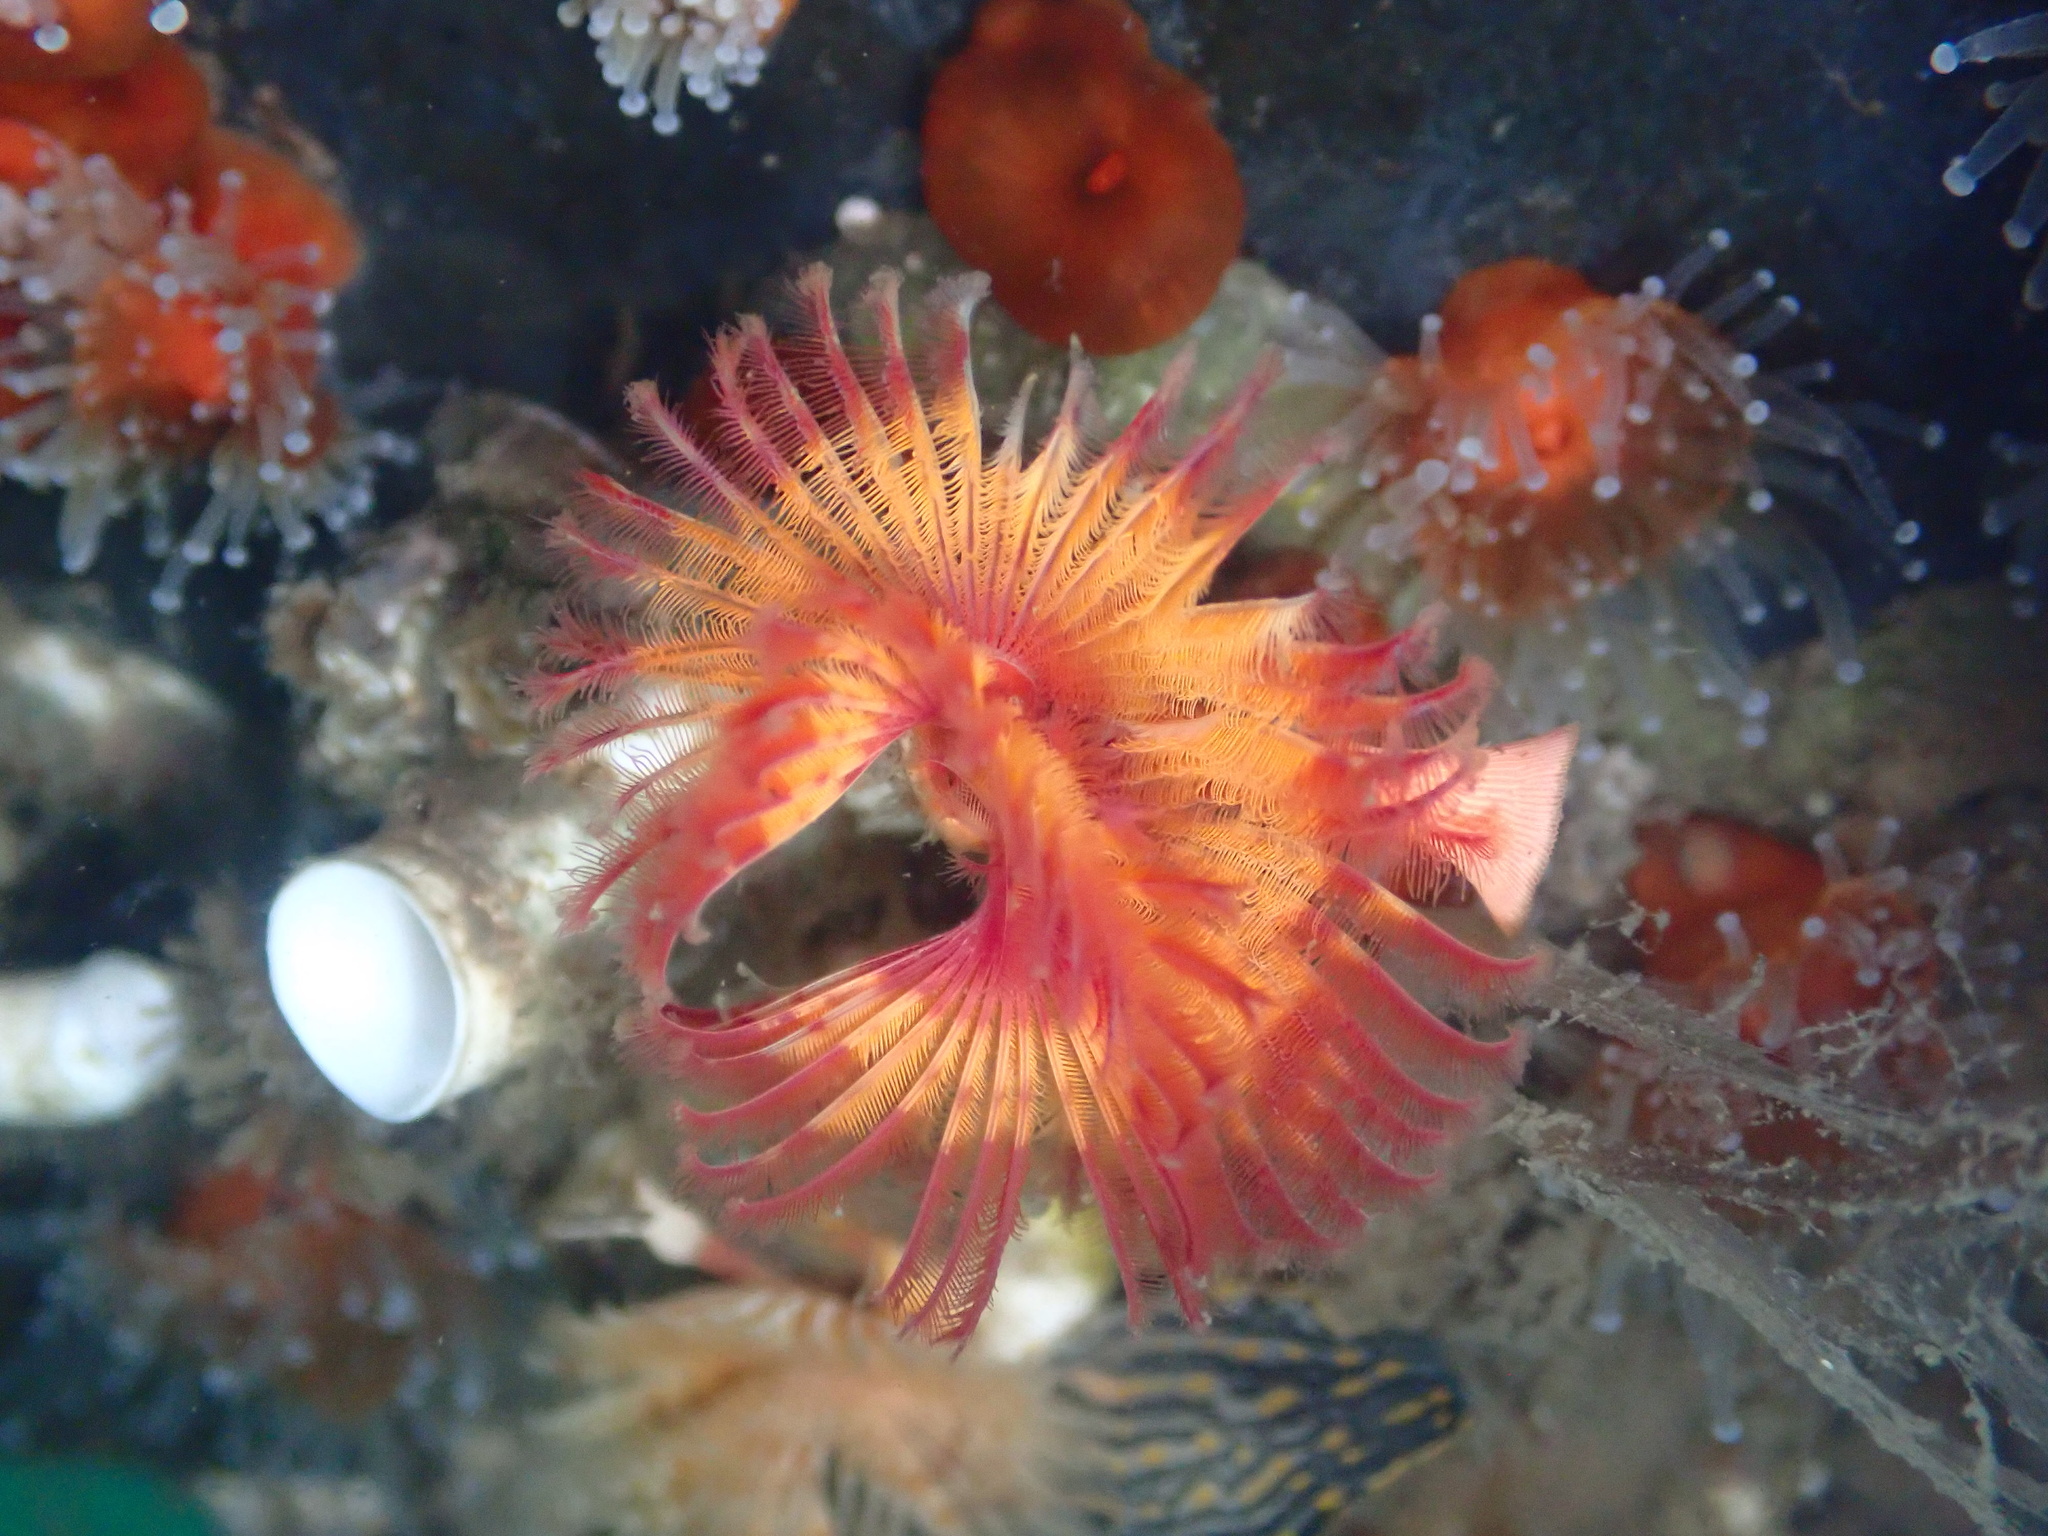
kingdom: Animalia
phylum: Annelida
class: Polychaeta
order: Sabellida
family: Serpulidae
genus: Serpula
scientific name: Serpula columbiana
